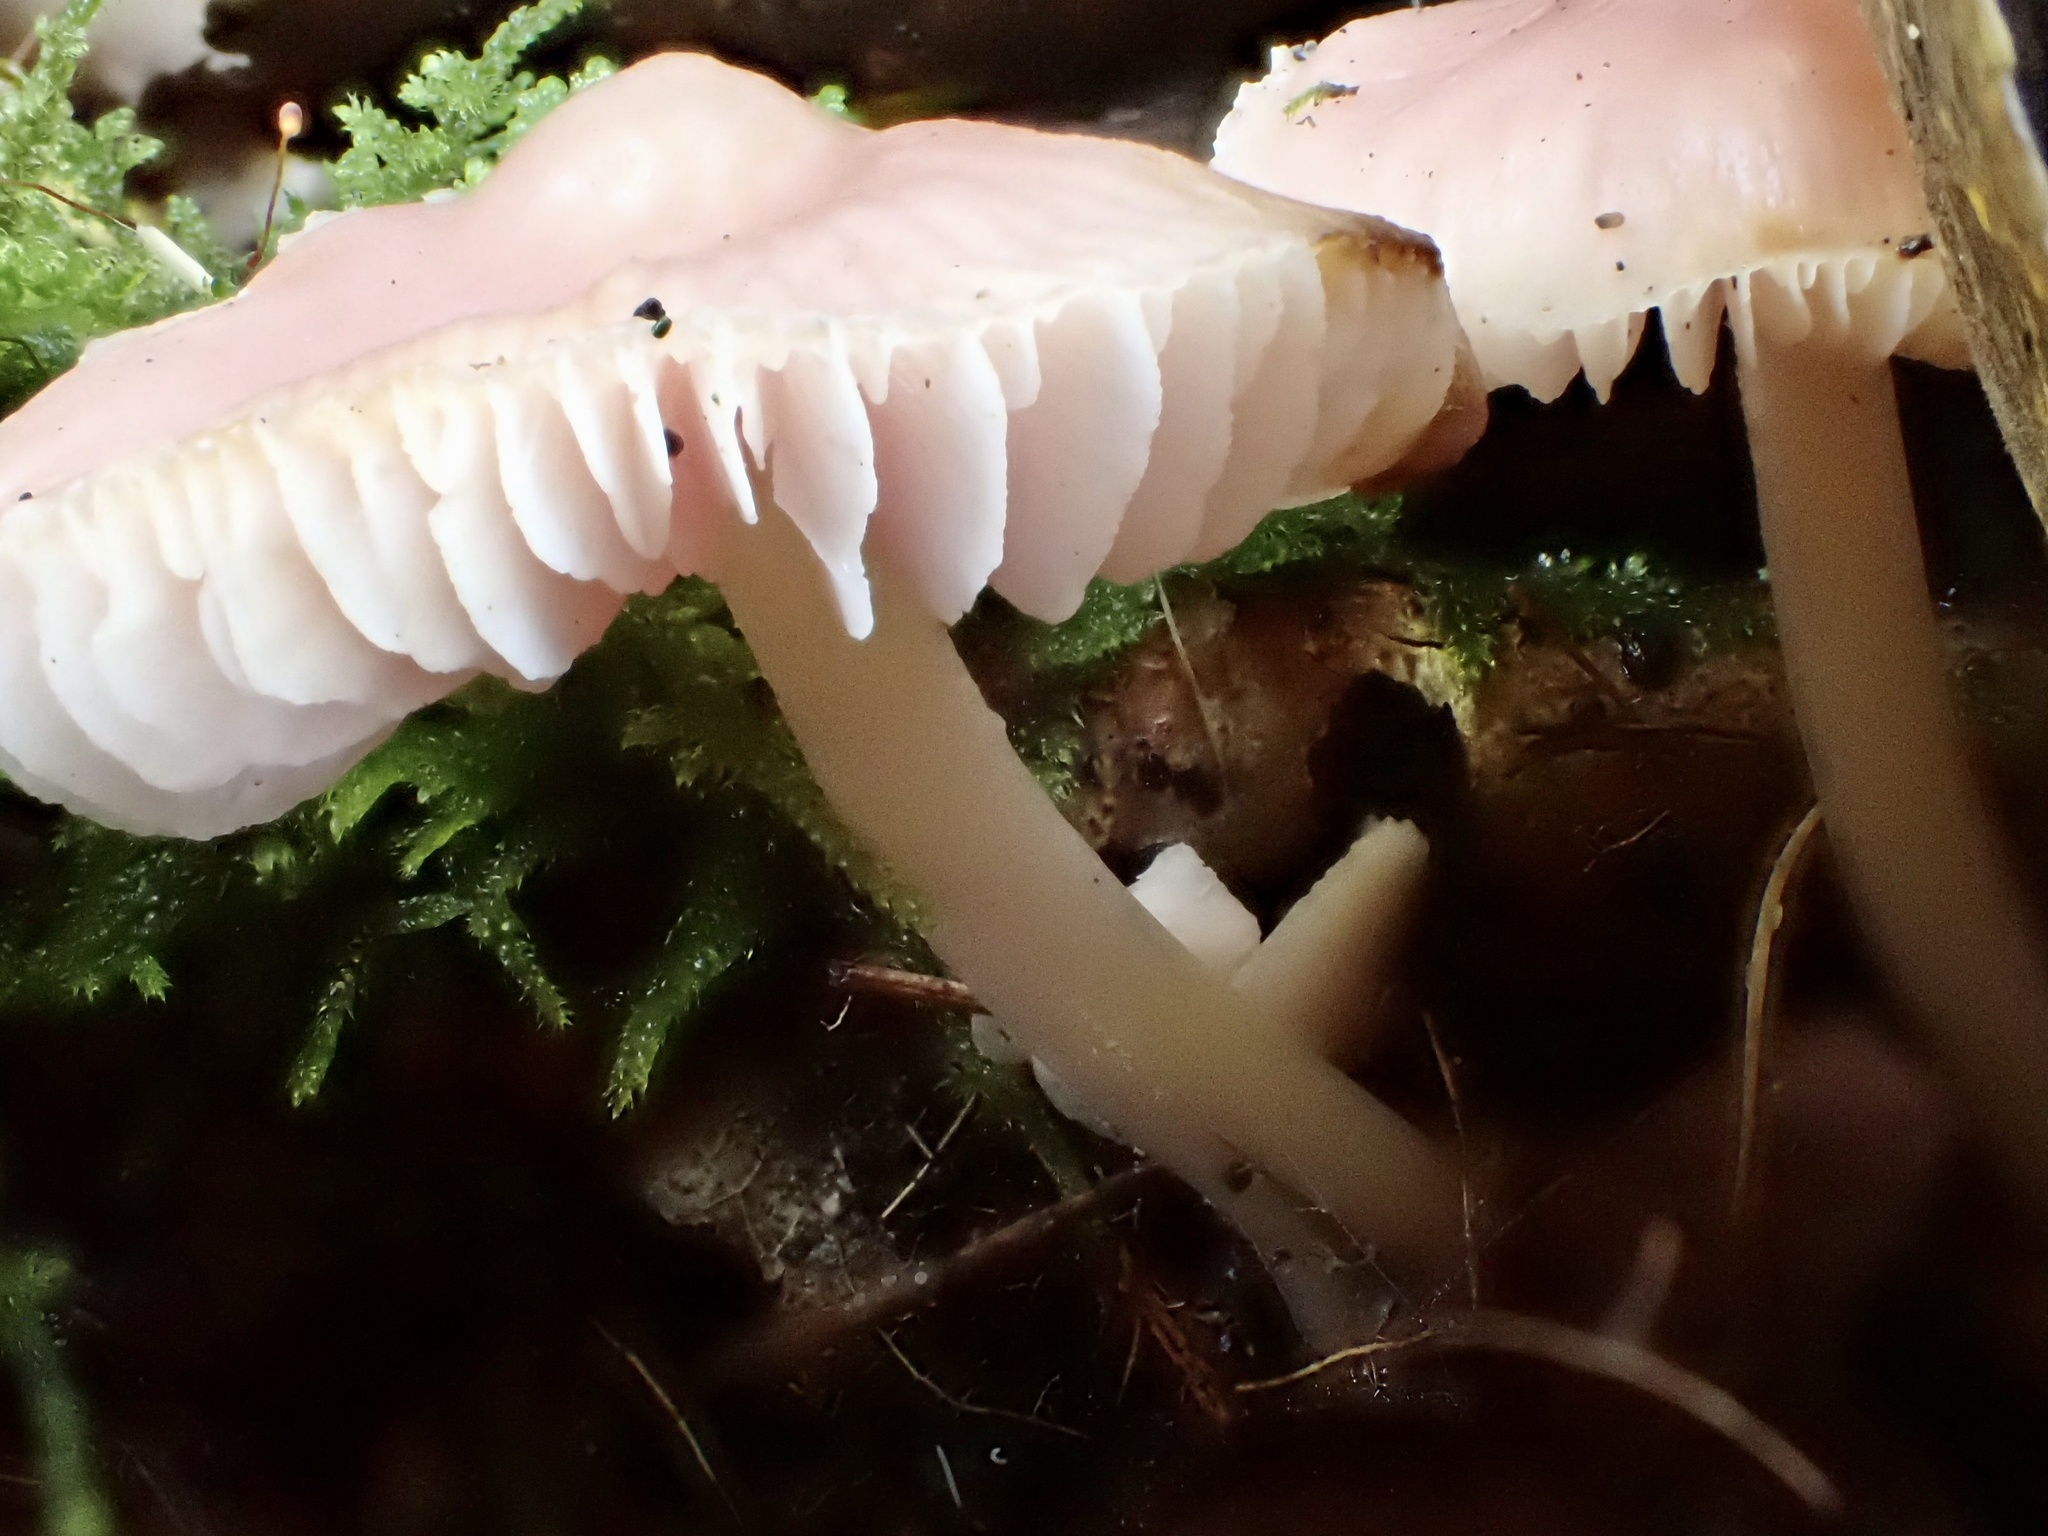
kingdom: Fungi
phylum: Basidiomycota
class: Agaricomycetes
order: Agaricales
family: Mycenaceae
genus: Mycena
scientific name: Mycena rosea
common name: Rosy bonnet
